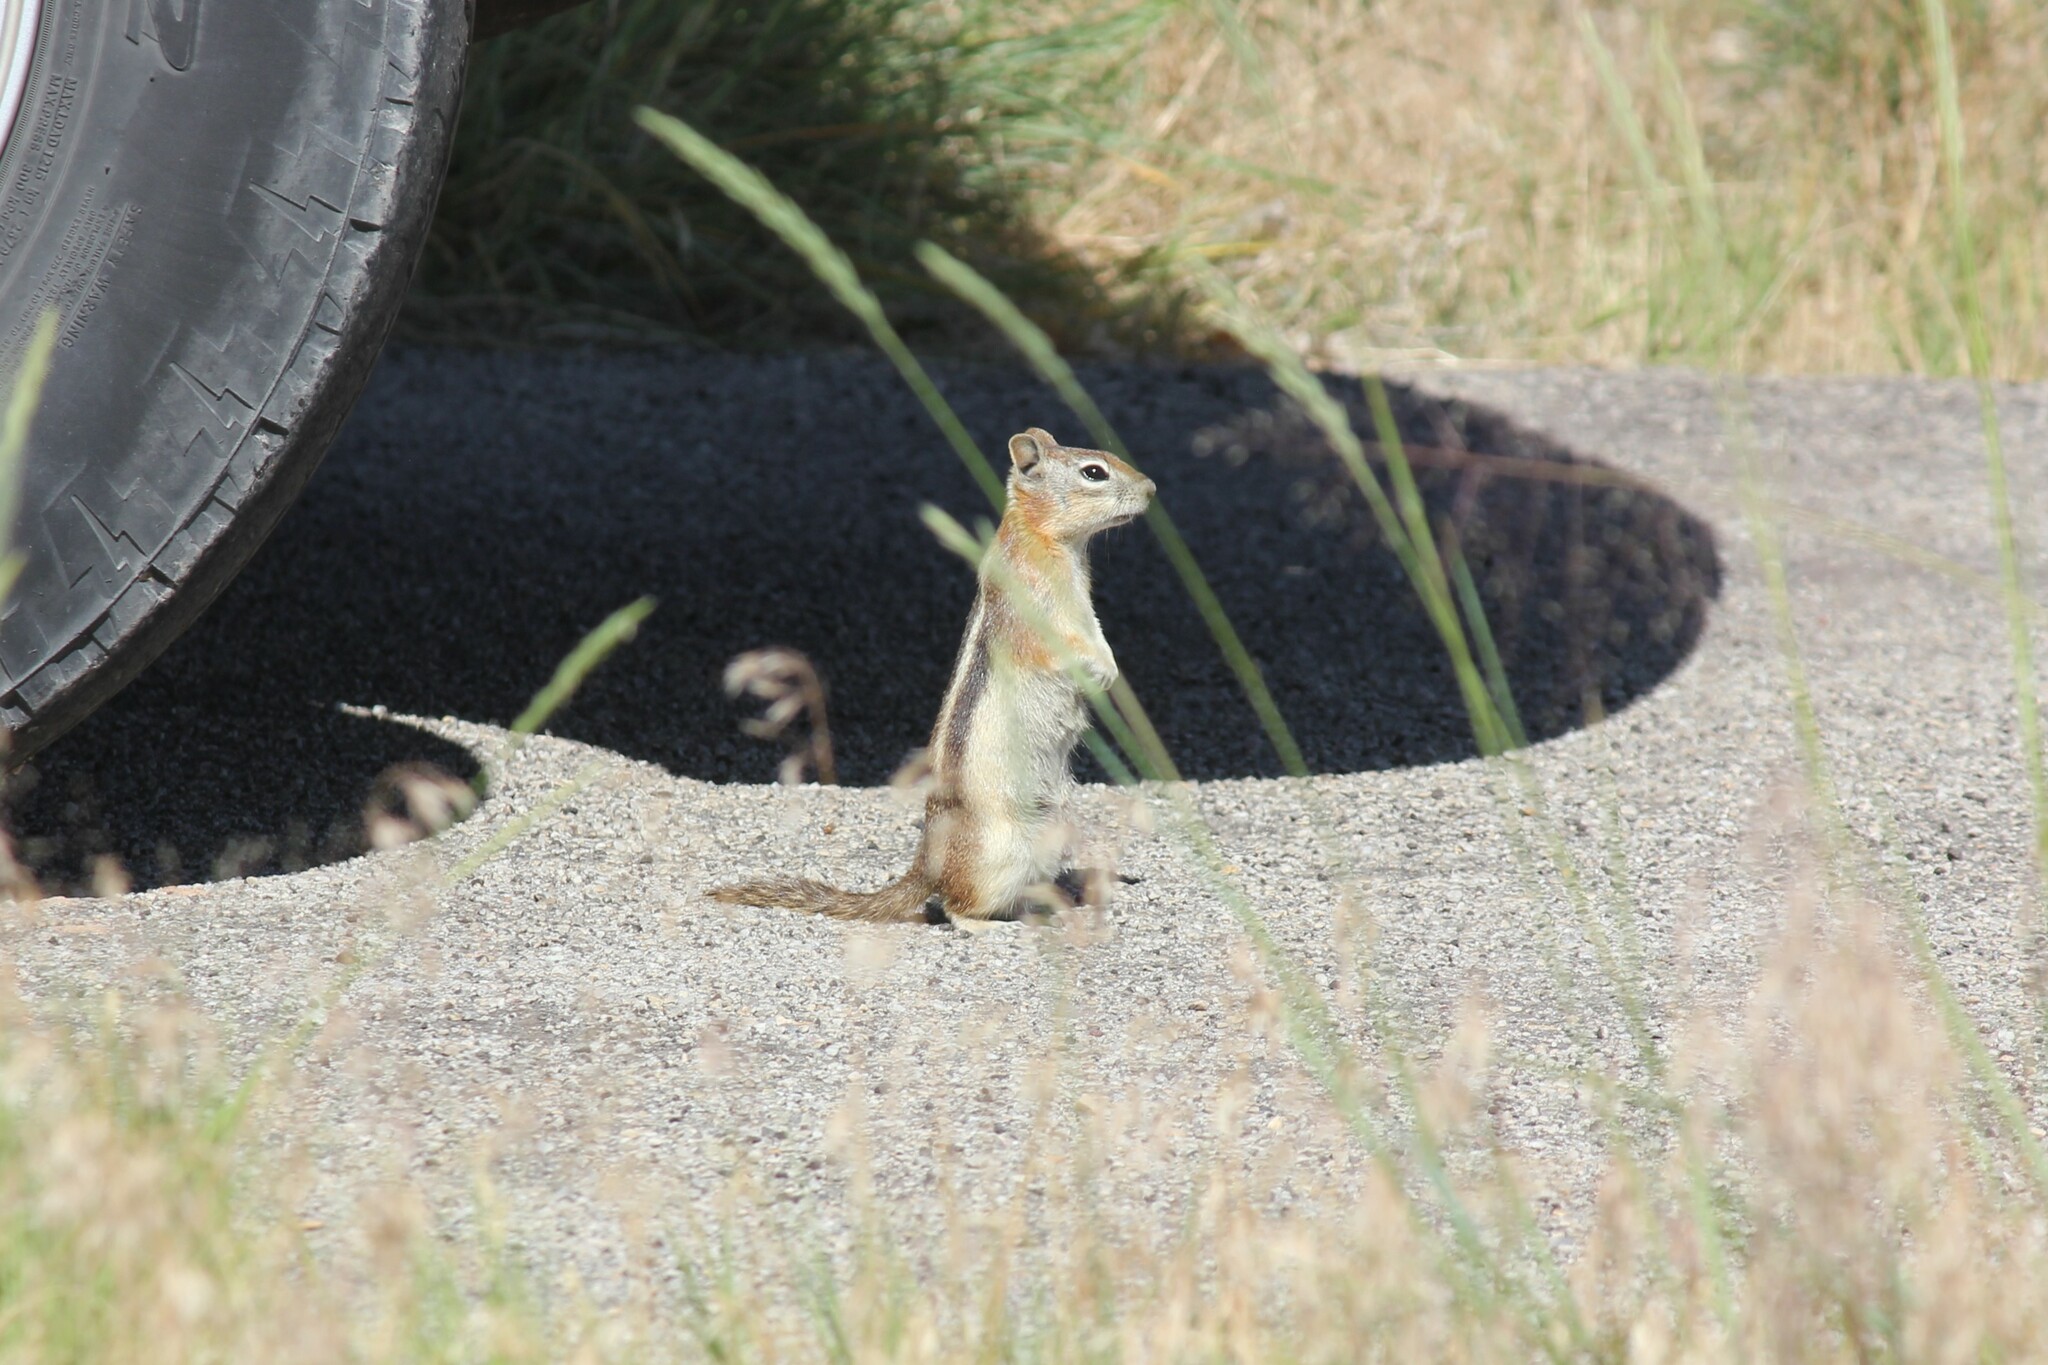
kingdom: Animalia
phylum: Chordata
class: Mammalia
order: Rodentia
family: Sciuridae
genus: Callospermophilus
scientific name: Callospermophilus lateralis
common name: Golden-mantled ground squirrel
